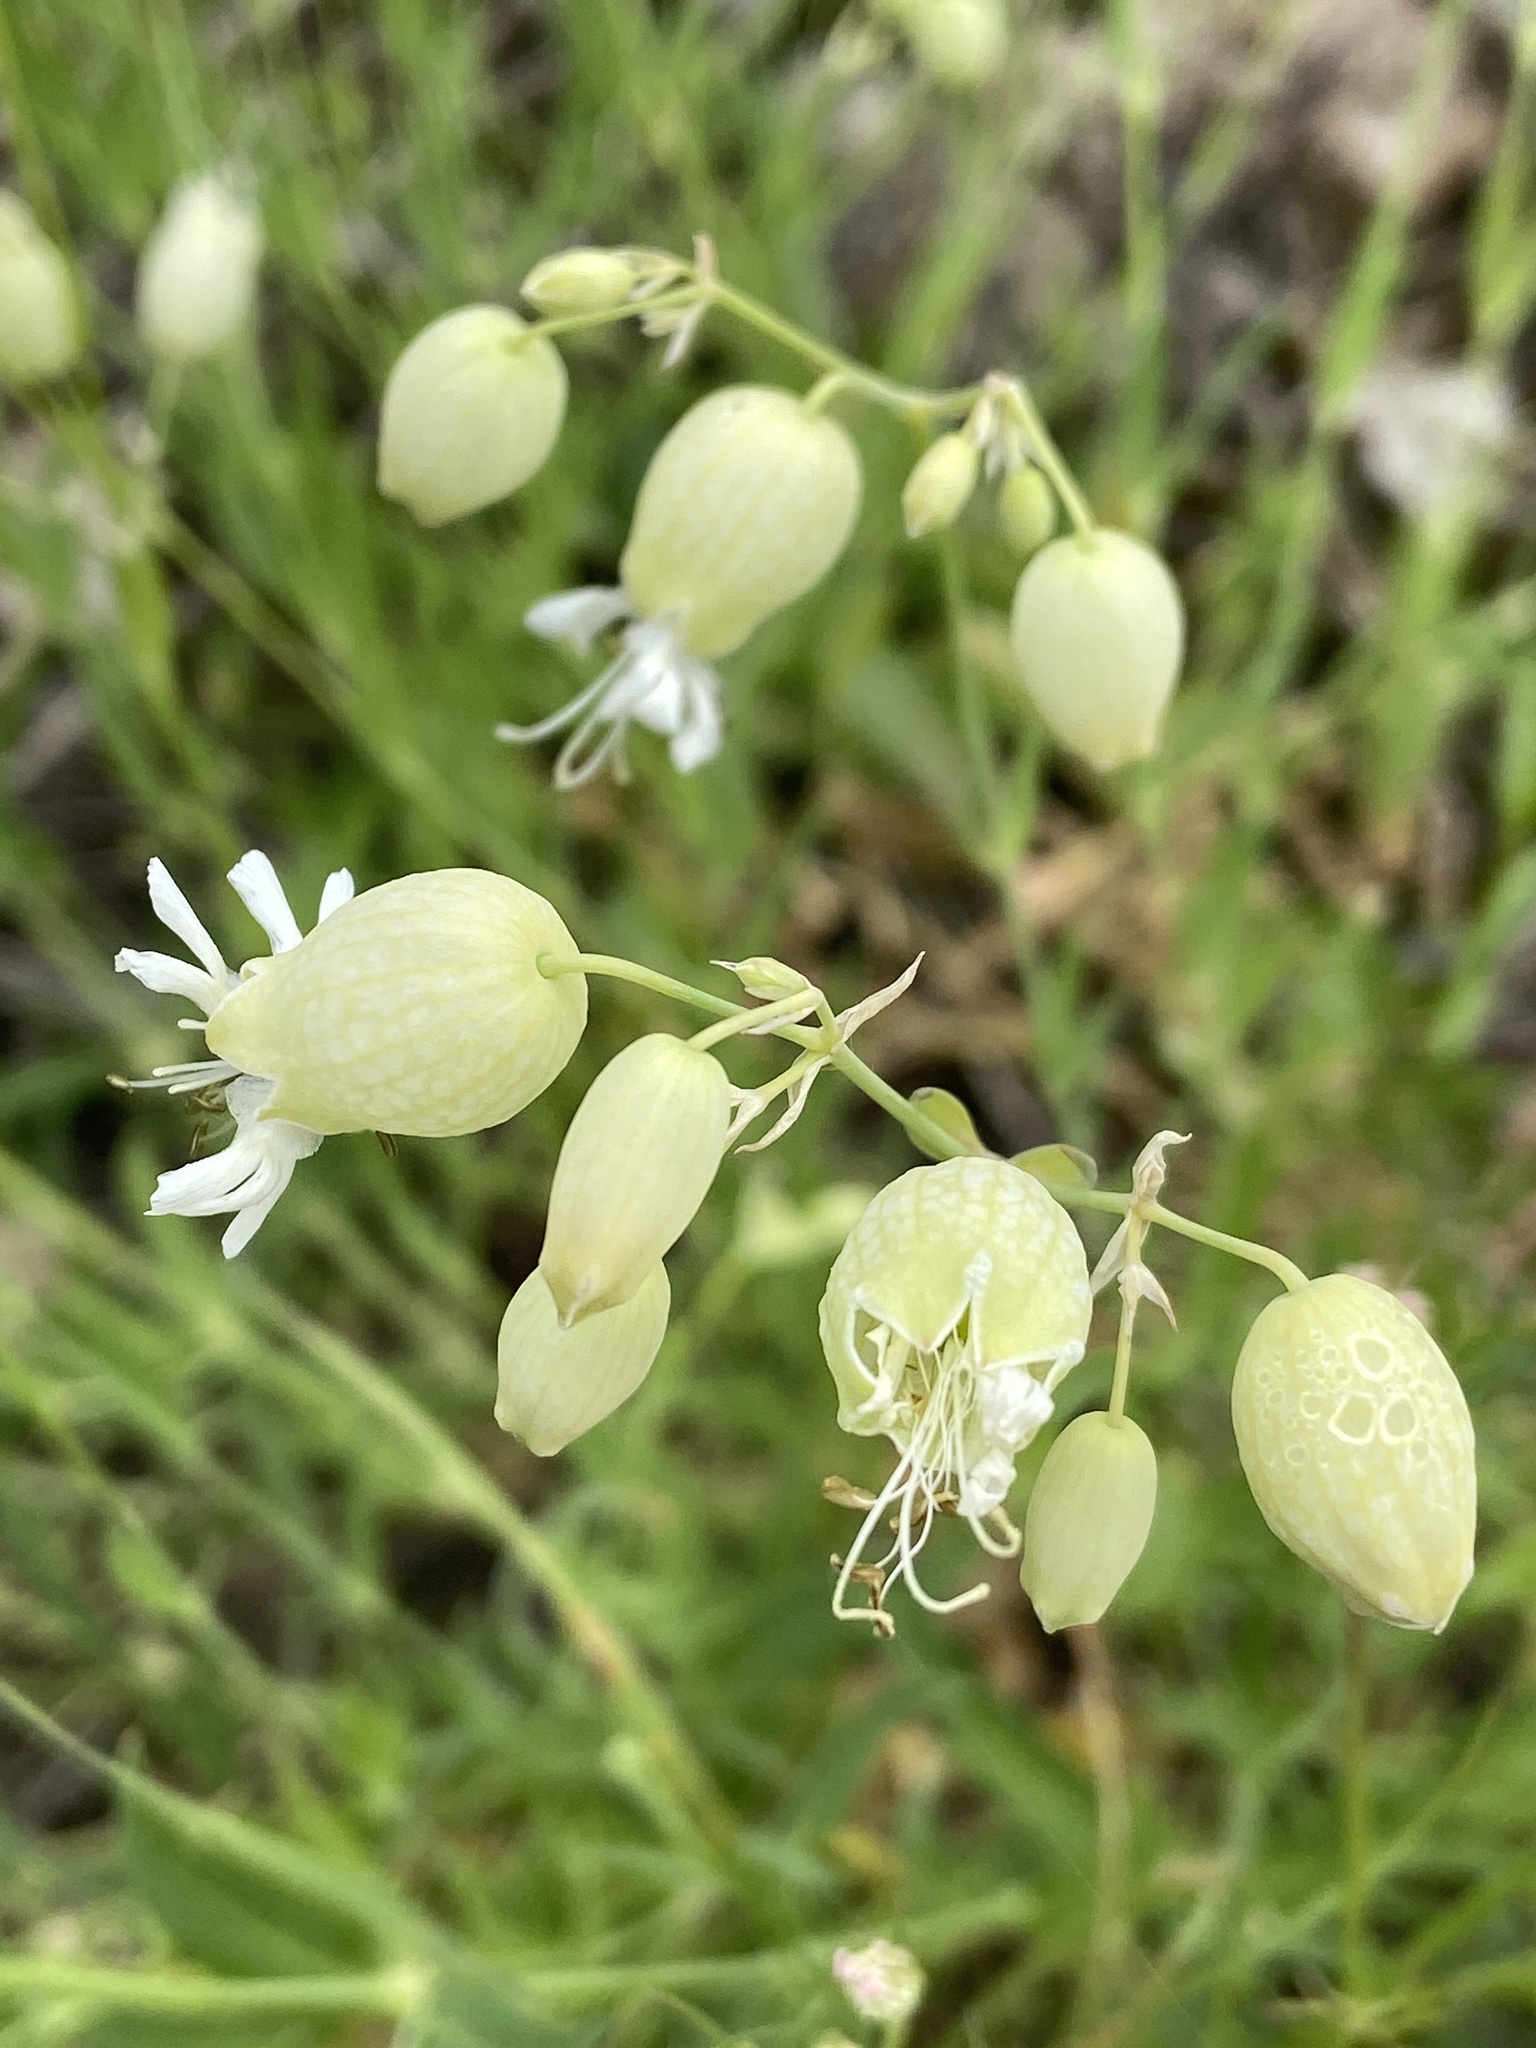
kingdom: Plantae
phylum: Tracheophyta
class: Magnoliopsida
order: Caryophyllales
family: Caryophyllaceae
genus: Silene
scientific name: Silene vulgaris
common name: Bladder campion
